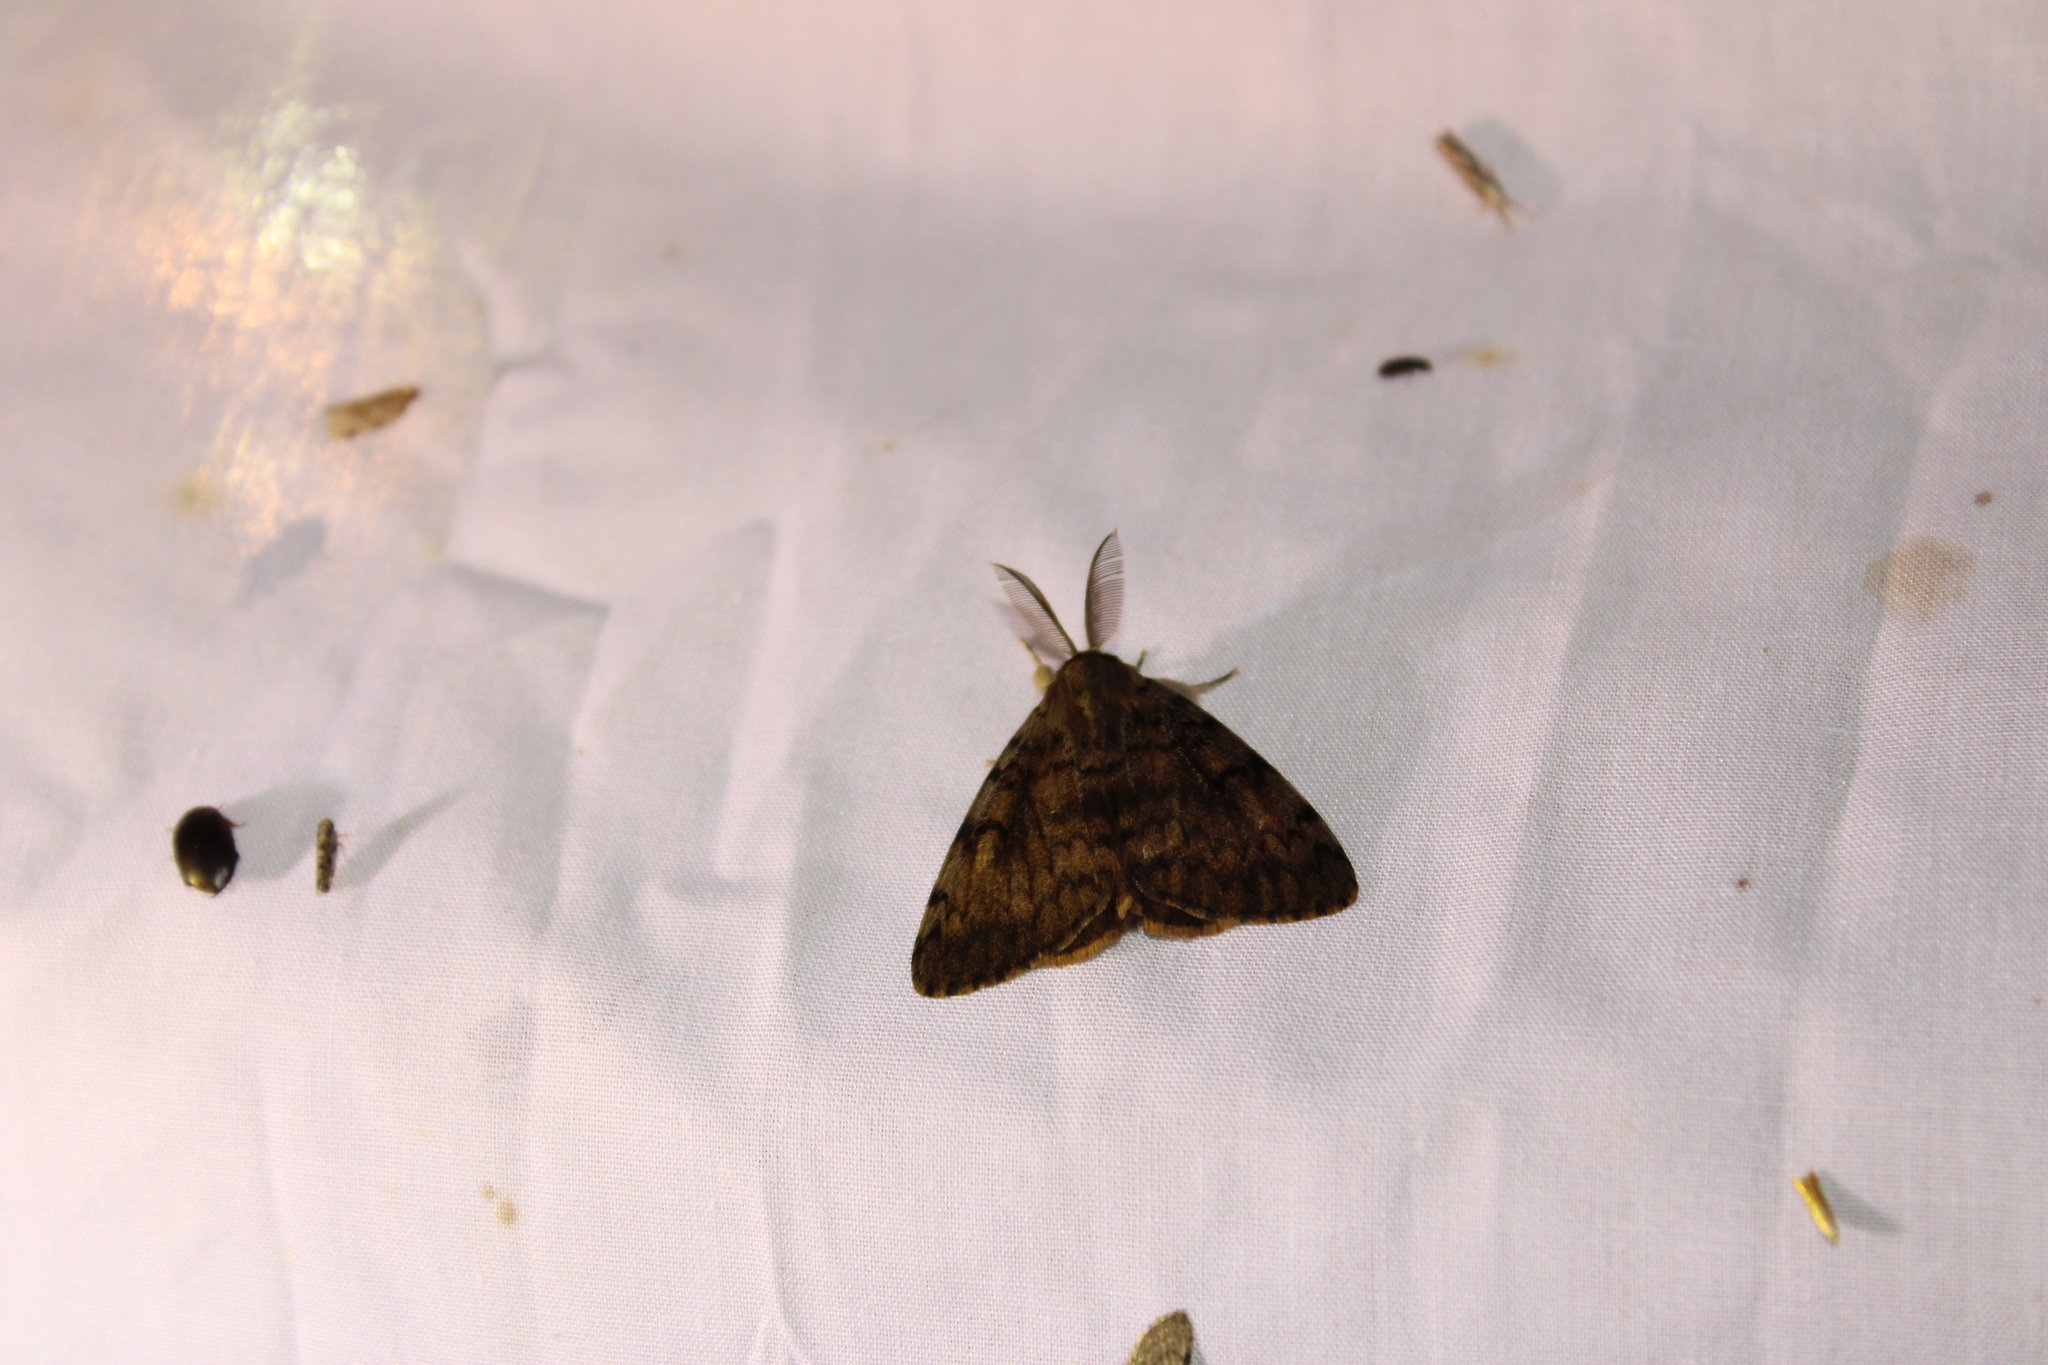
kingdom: Animalia
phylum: Arthropoda
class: Insecta
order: Lepidoptera
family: Erebidae
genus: Lymantria
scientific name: Lymantria dispar
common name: Gypsy moth
